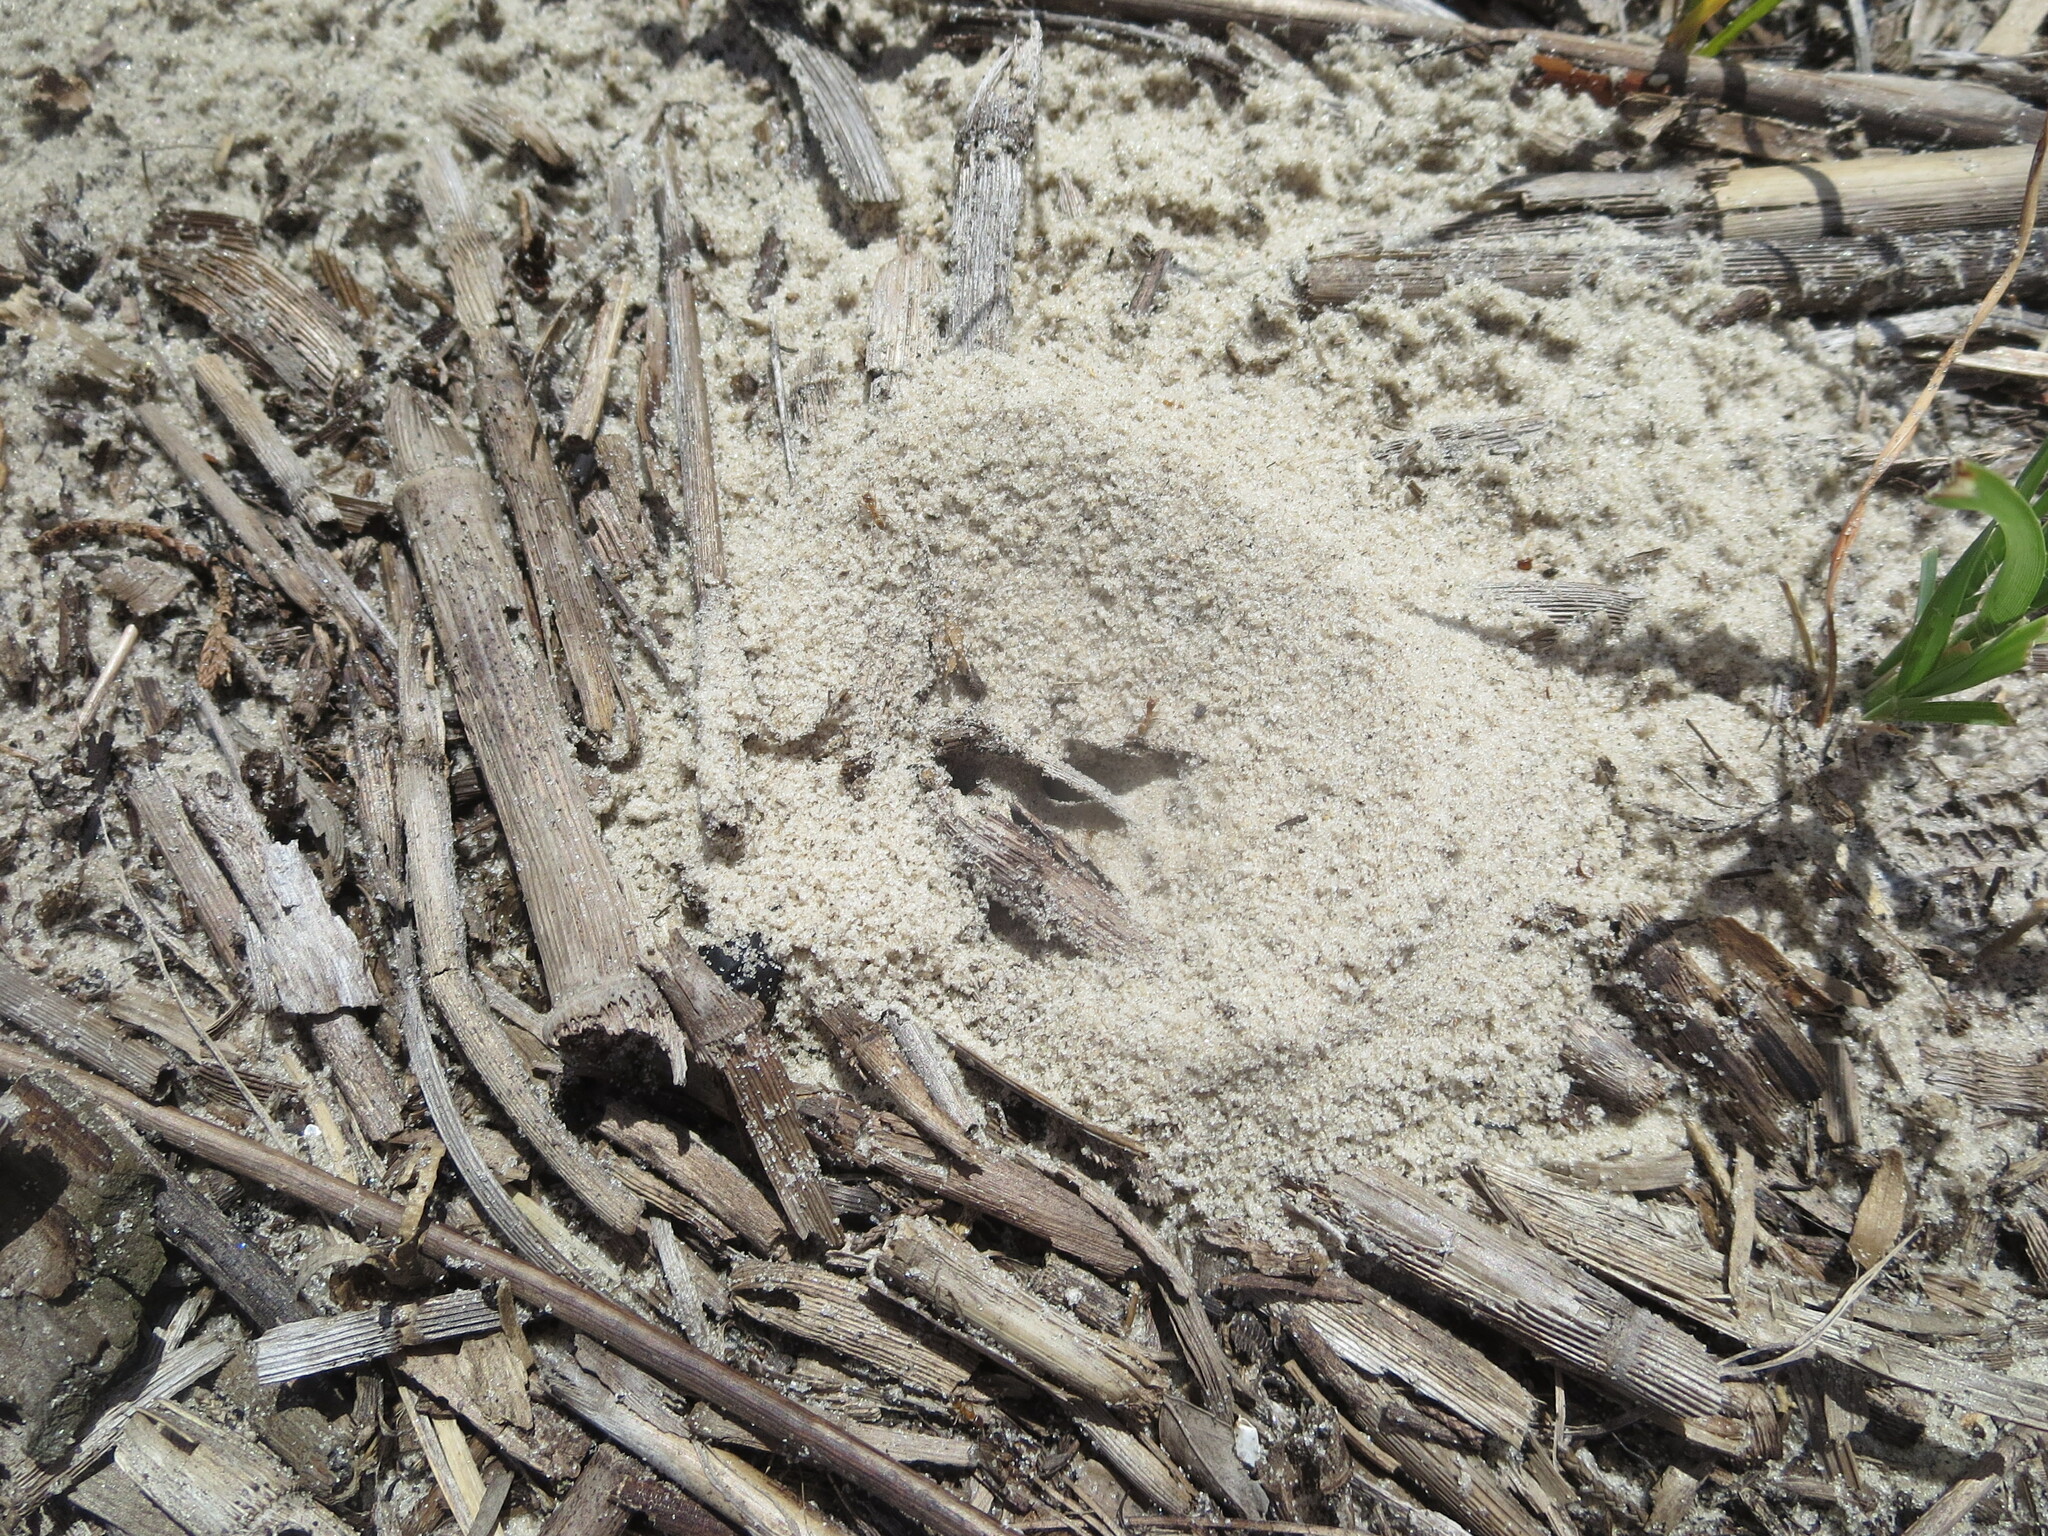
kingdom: Animalia
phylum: Arthropoda
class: Insecta
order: Hymenoptera
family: Formicidae
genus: Dorymyrmex
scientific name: Dorymyrmex bureni
